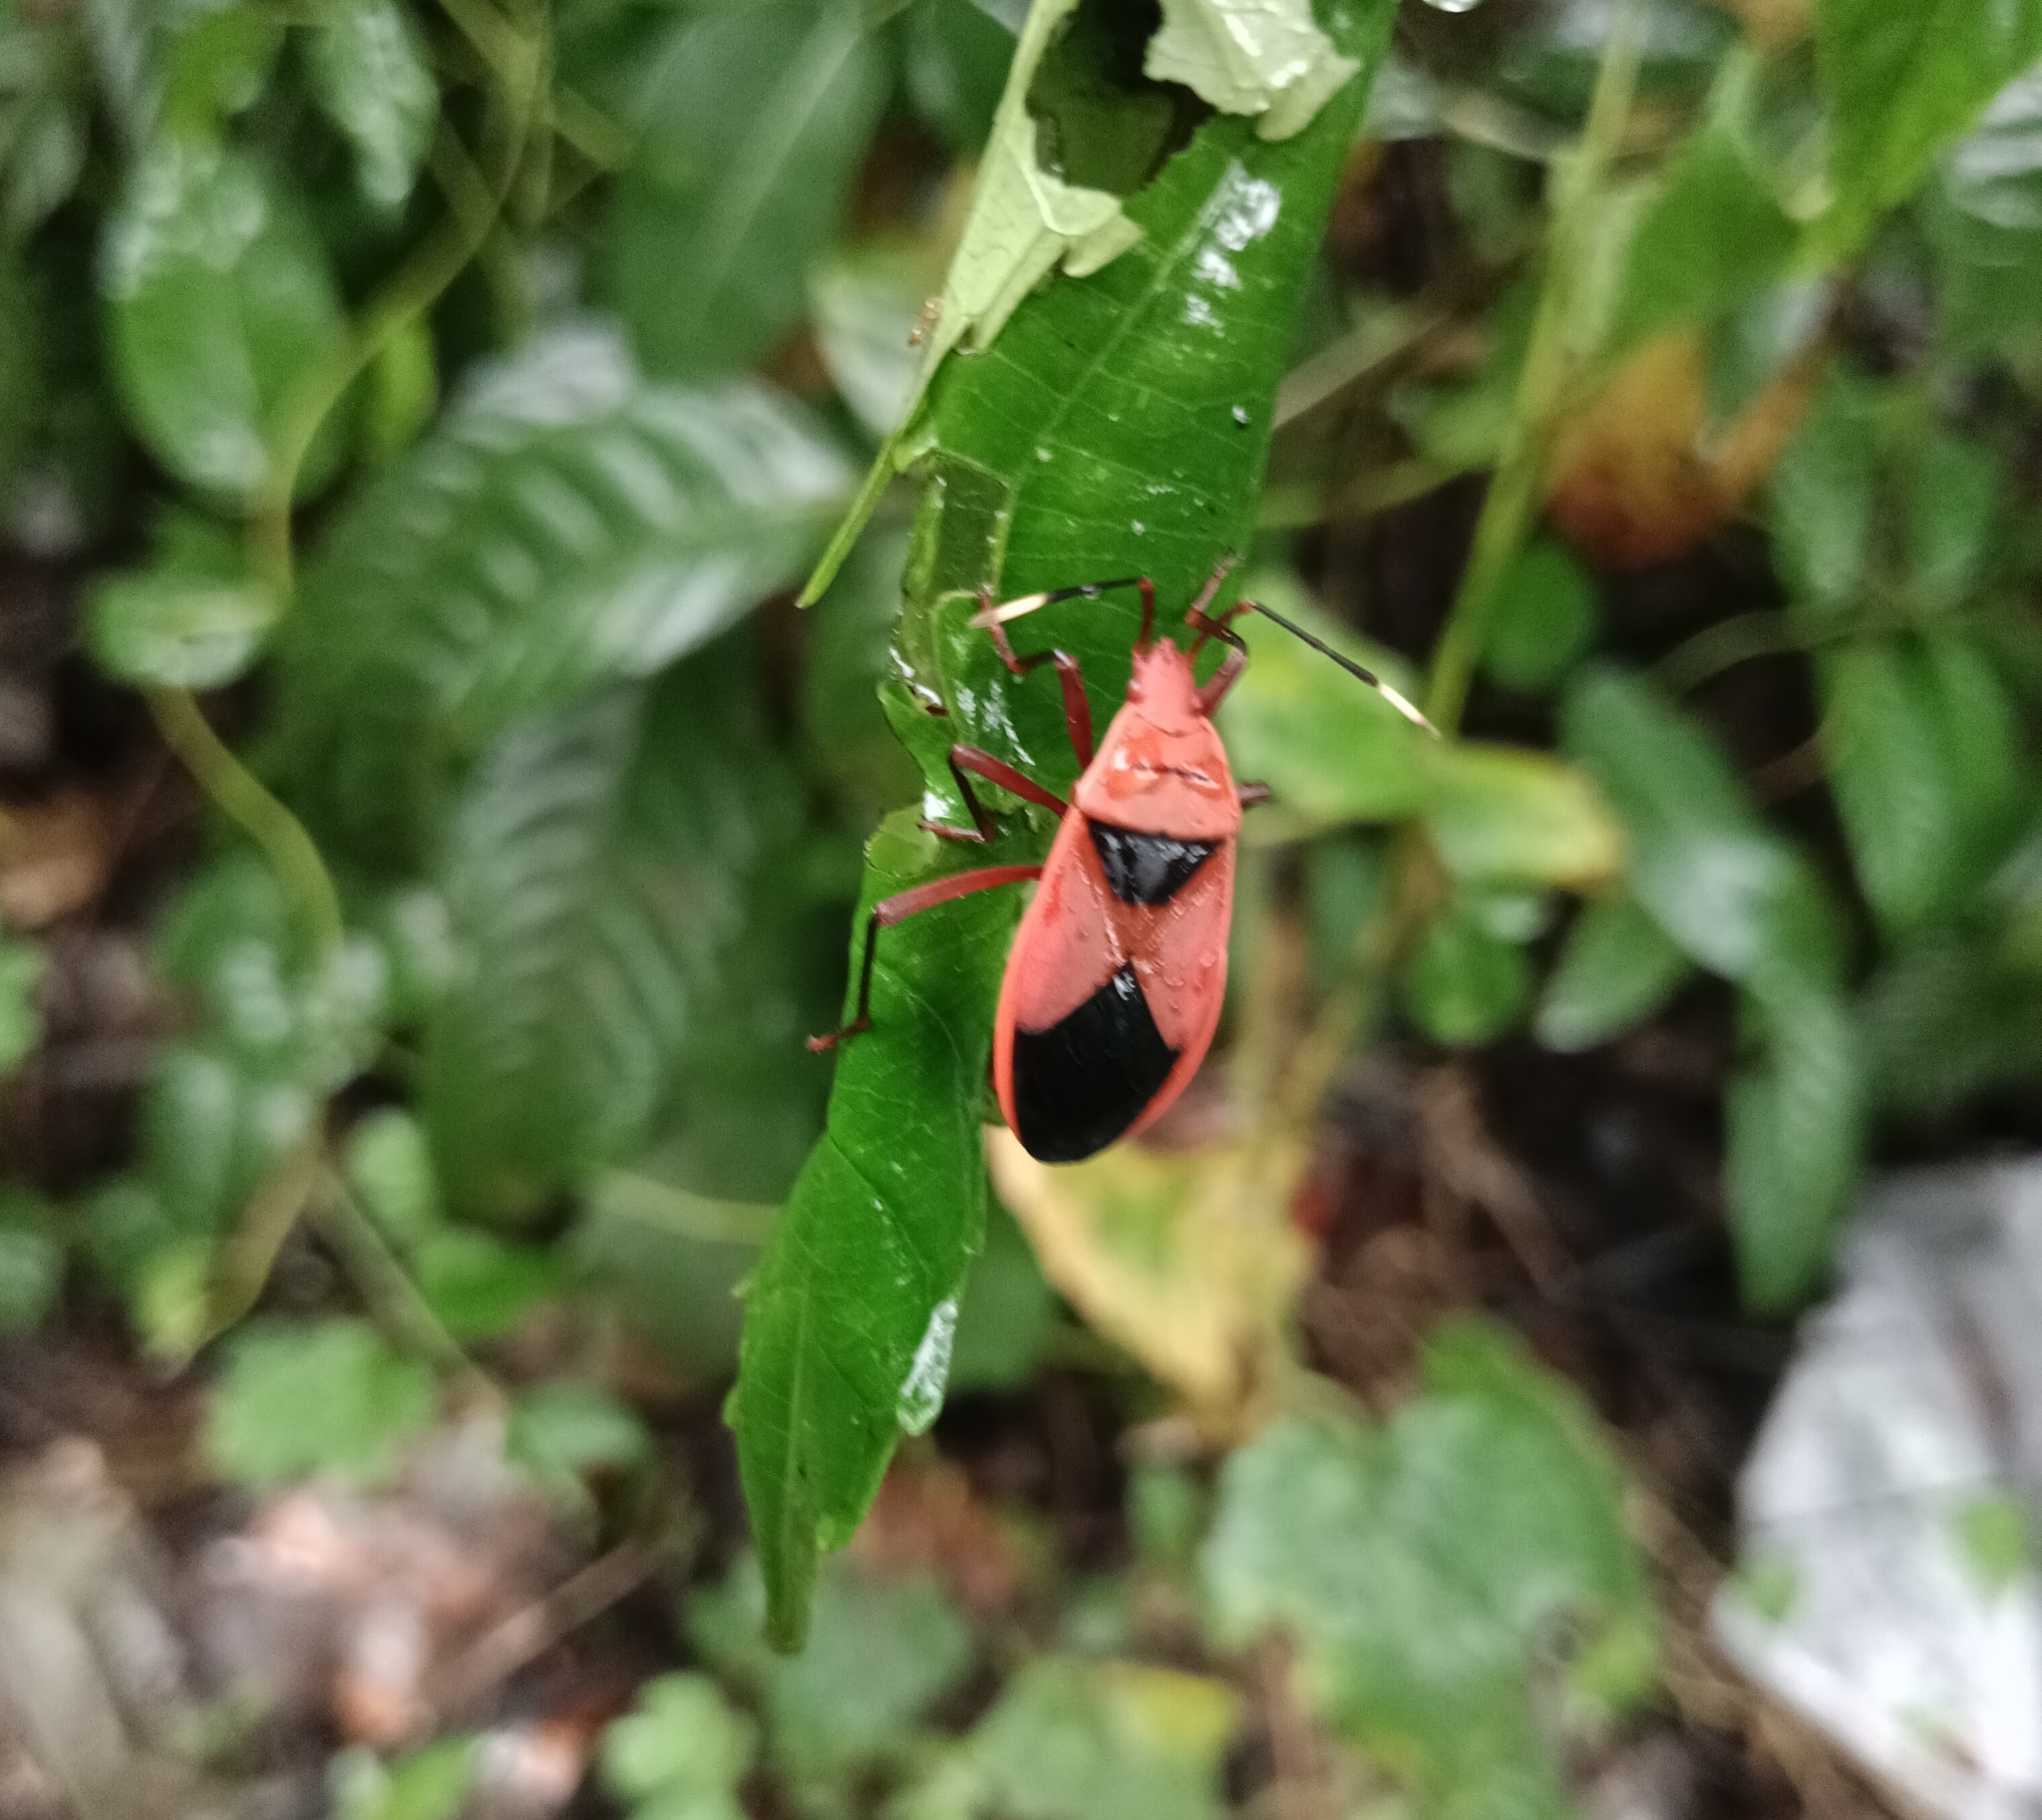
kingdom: Animalia
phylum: Arthropoda
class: Insecta
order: Hemiptera
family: Pyrrhocoridae
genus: Probergrothius
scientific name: Probergrothius
